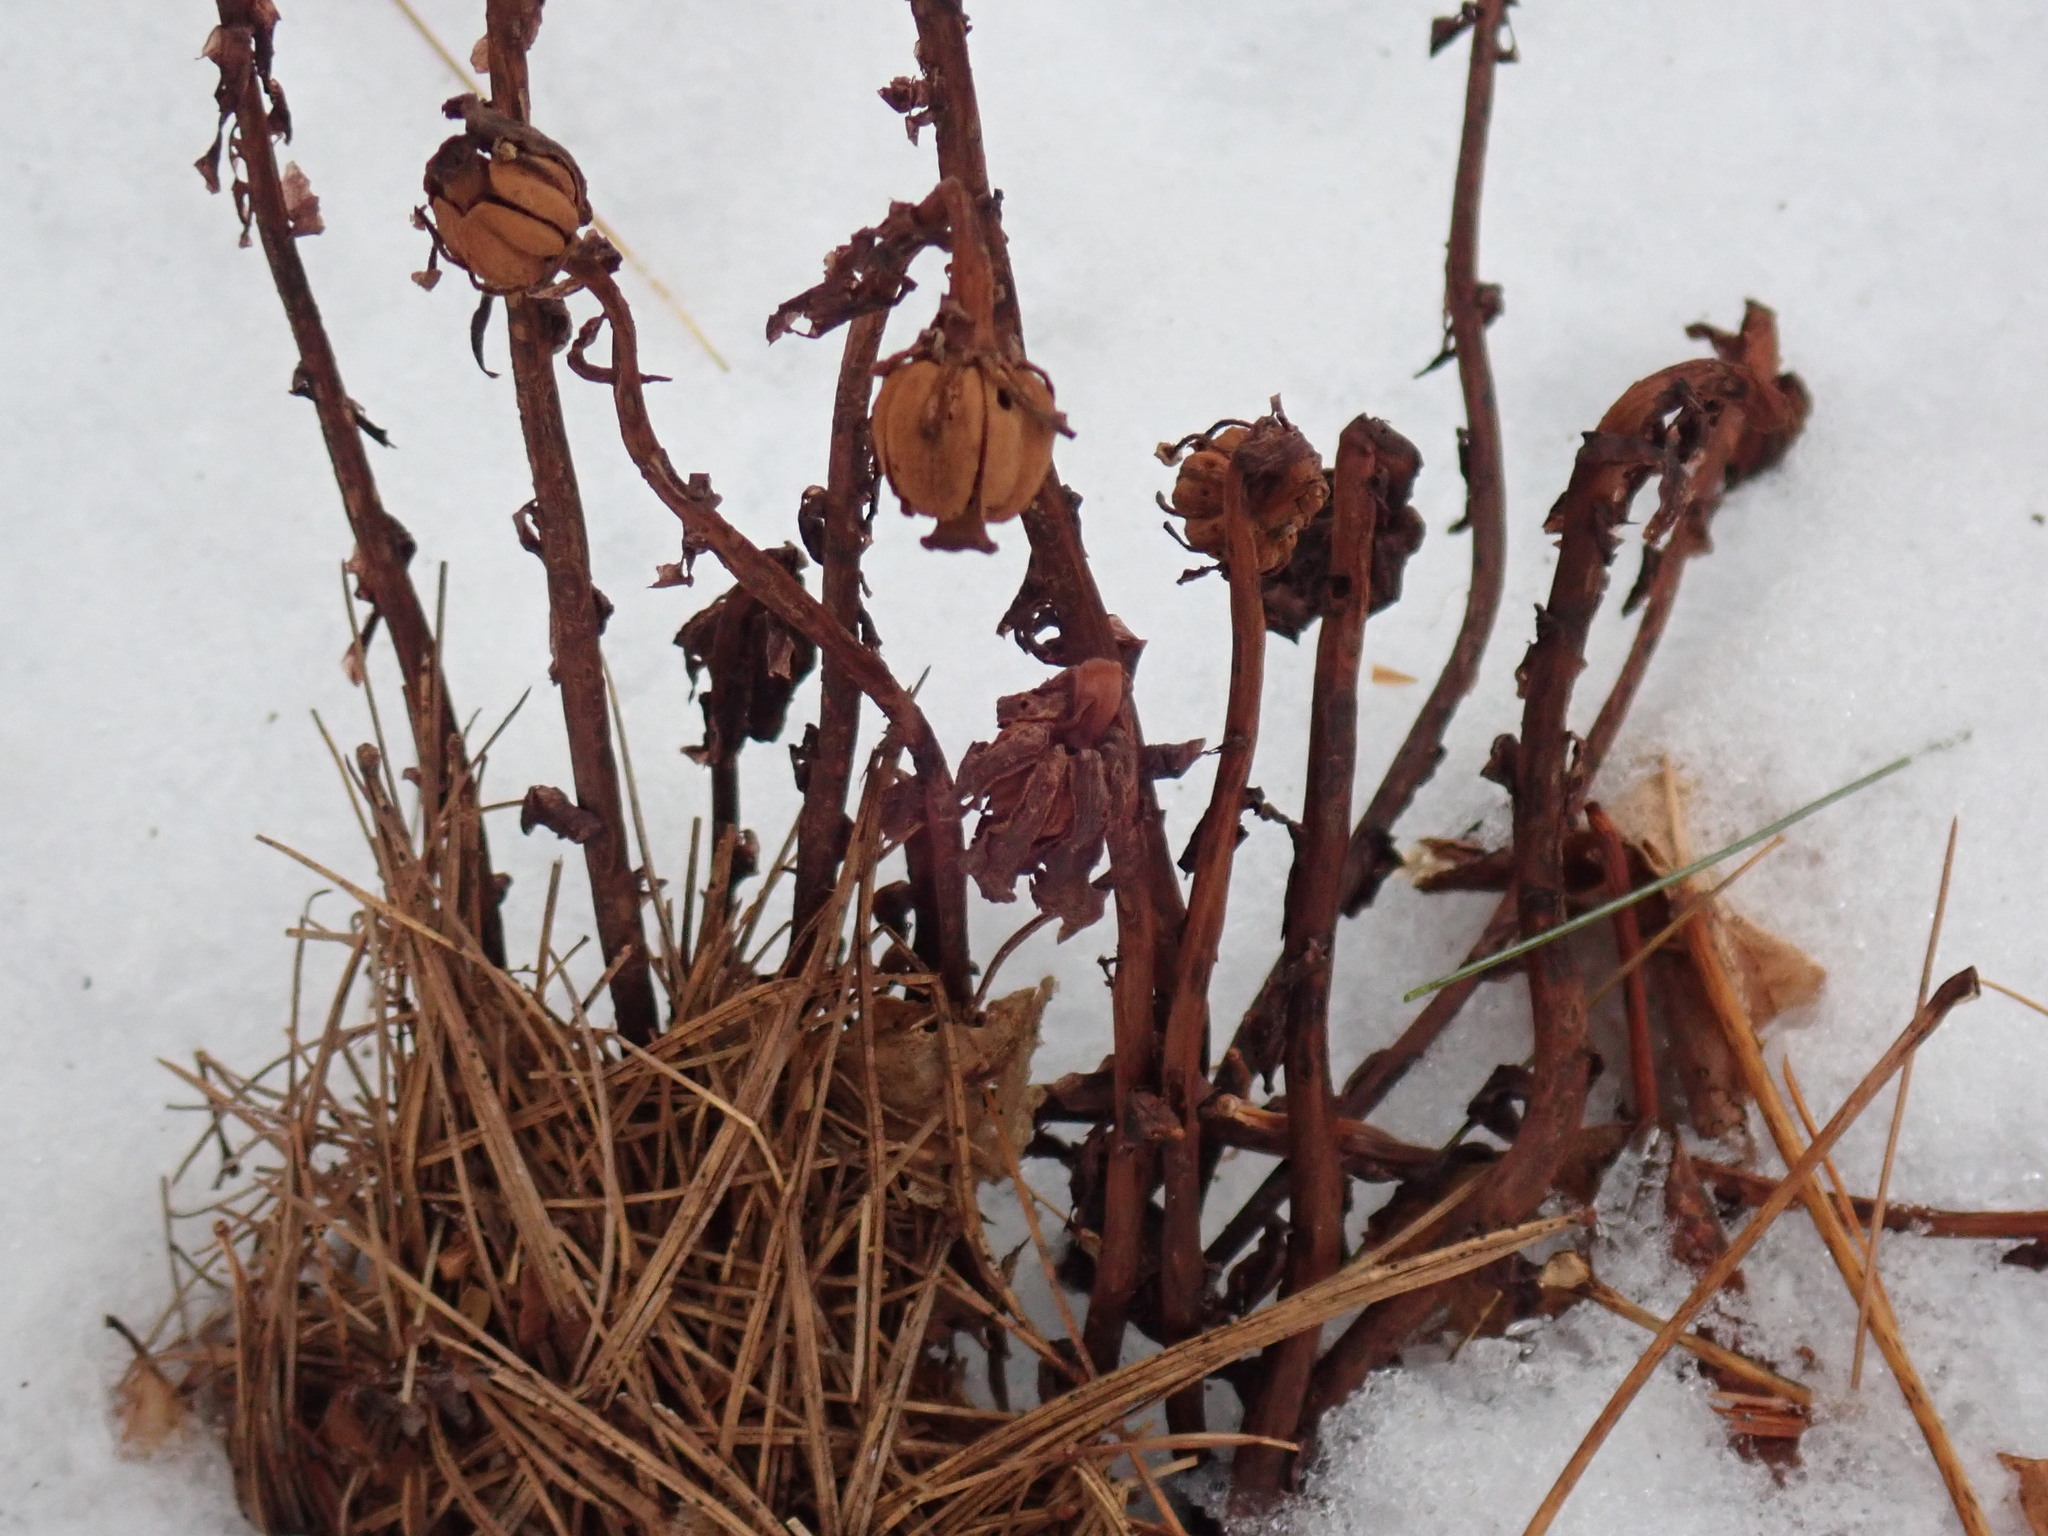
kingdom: Plantae
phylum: Tracheophyta
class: Magnoliopsida
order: Ericales
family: Ericaceae
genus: Monotropa
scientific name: Monotropa uniflora
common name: Convulsion root
